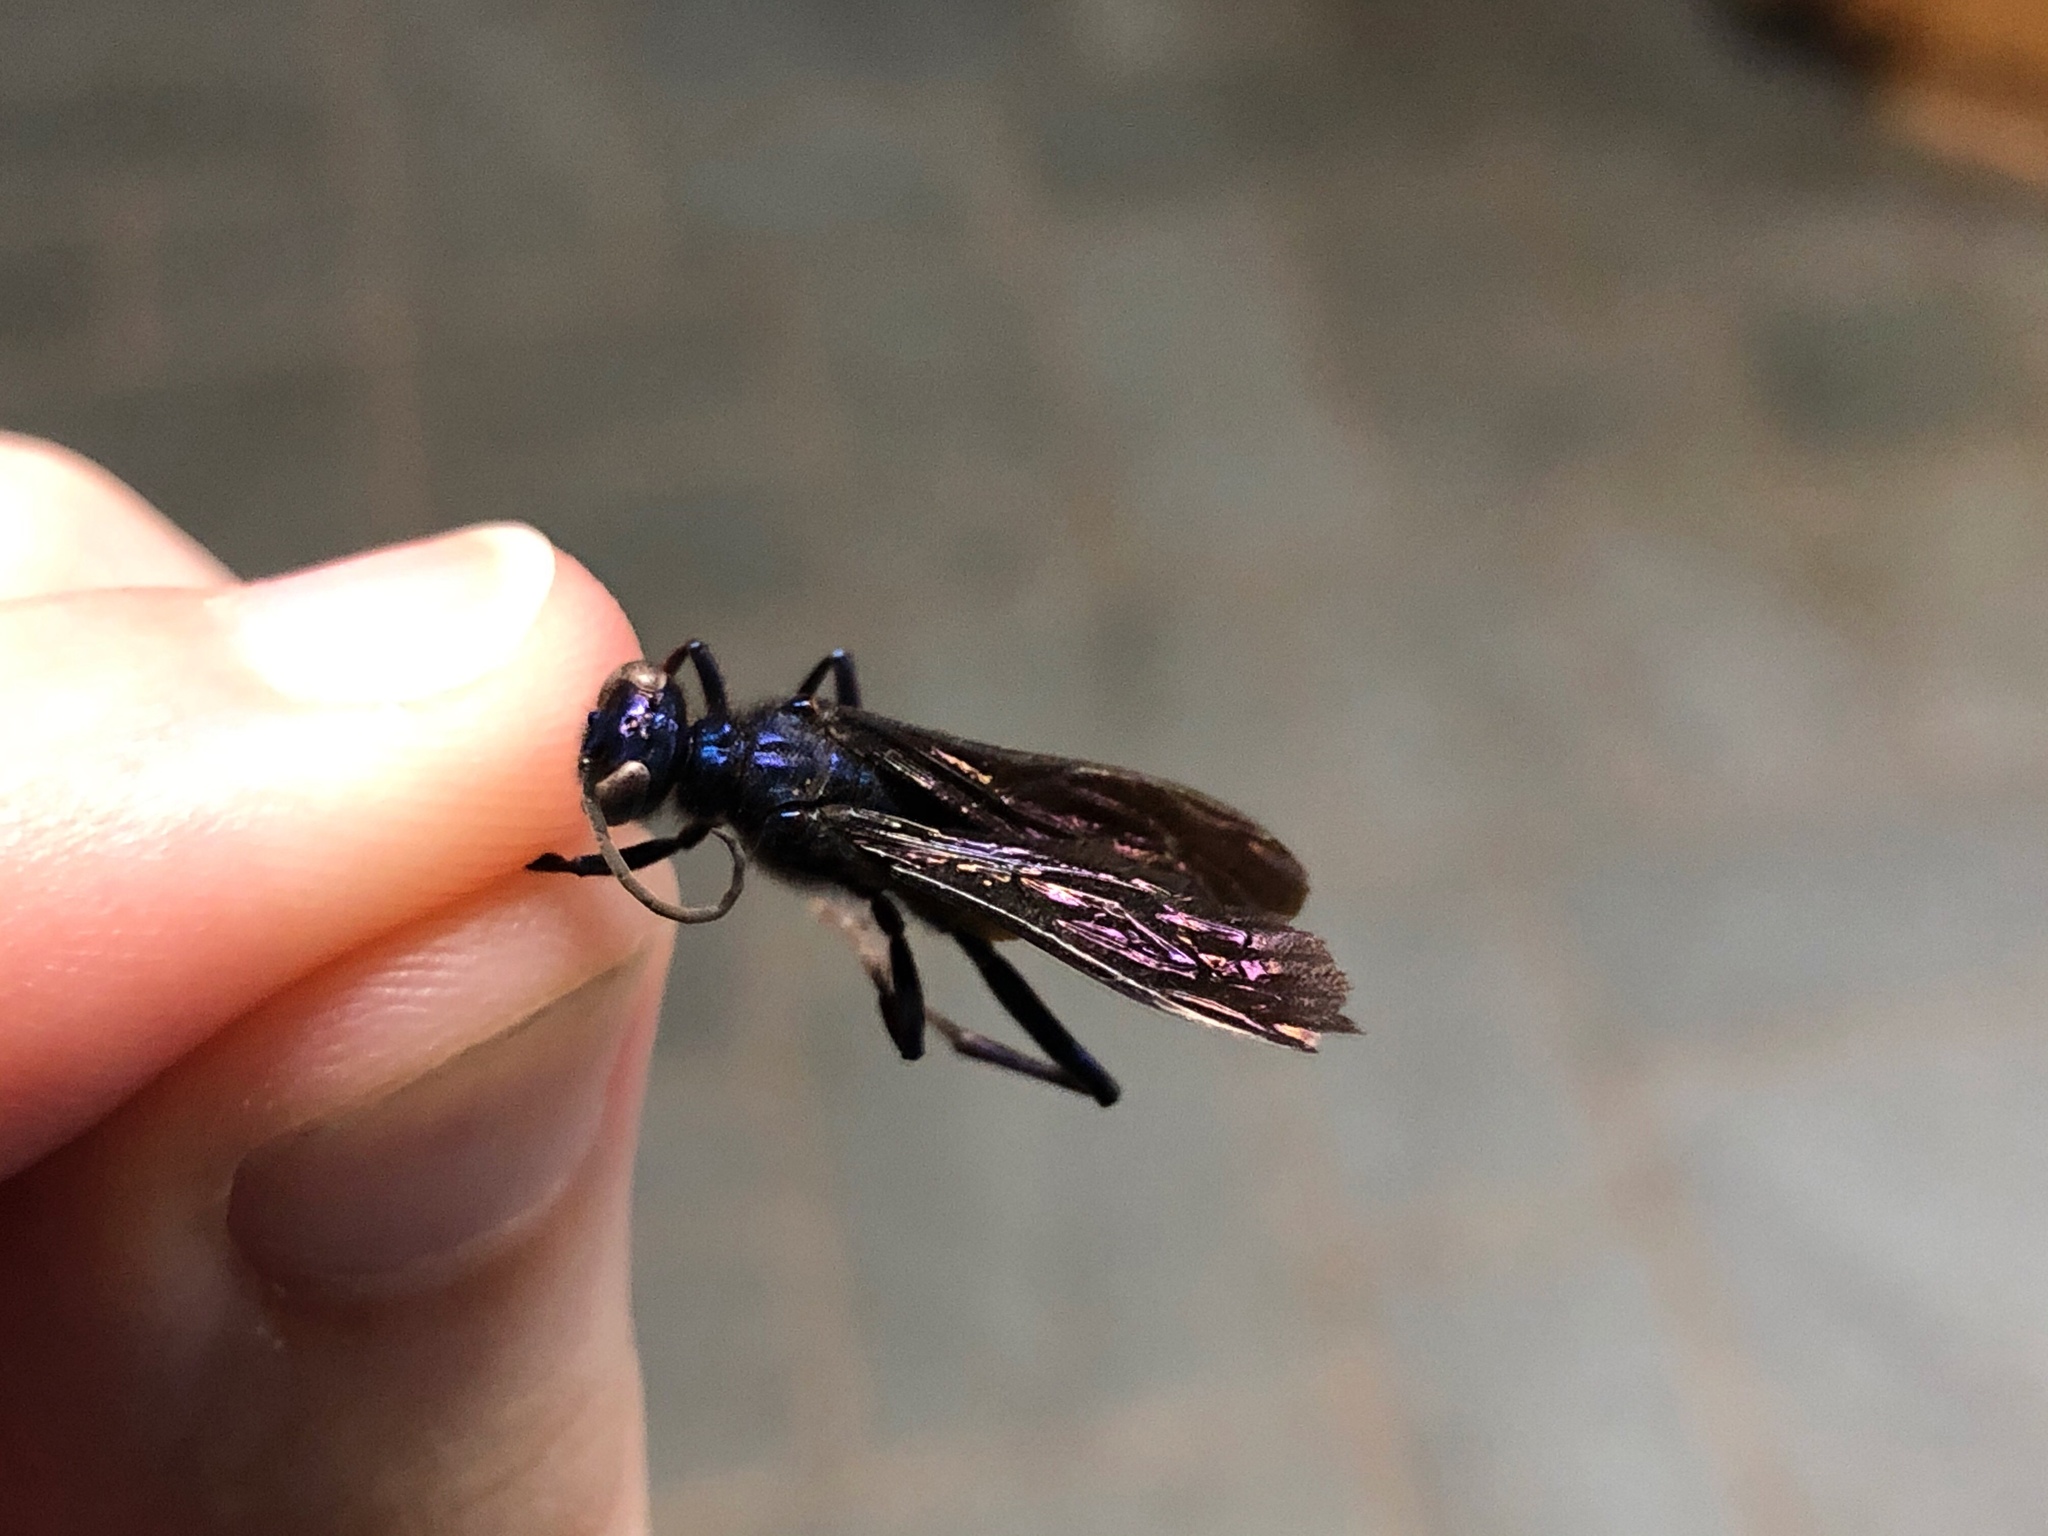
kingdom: Animalia
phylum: Arthropoda
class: Insecta
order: Hymenoptera
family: Sphecidae
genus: Chalybion
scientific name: Chalybion californicum
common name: Mud dauber
